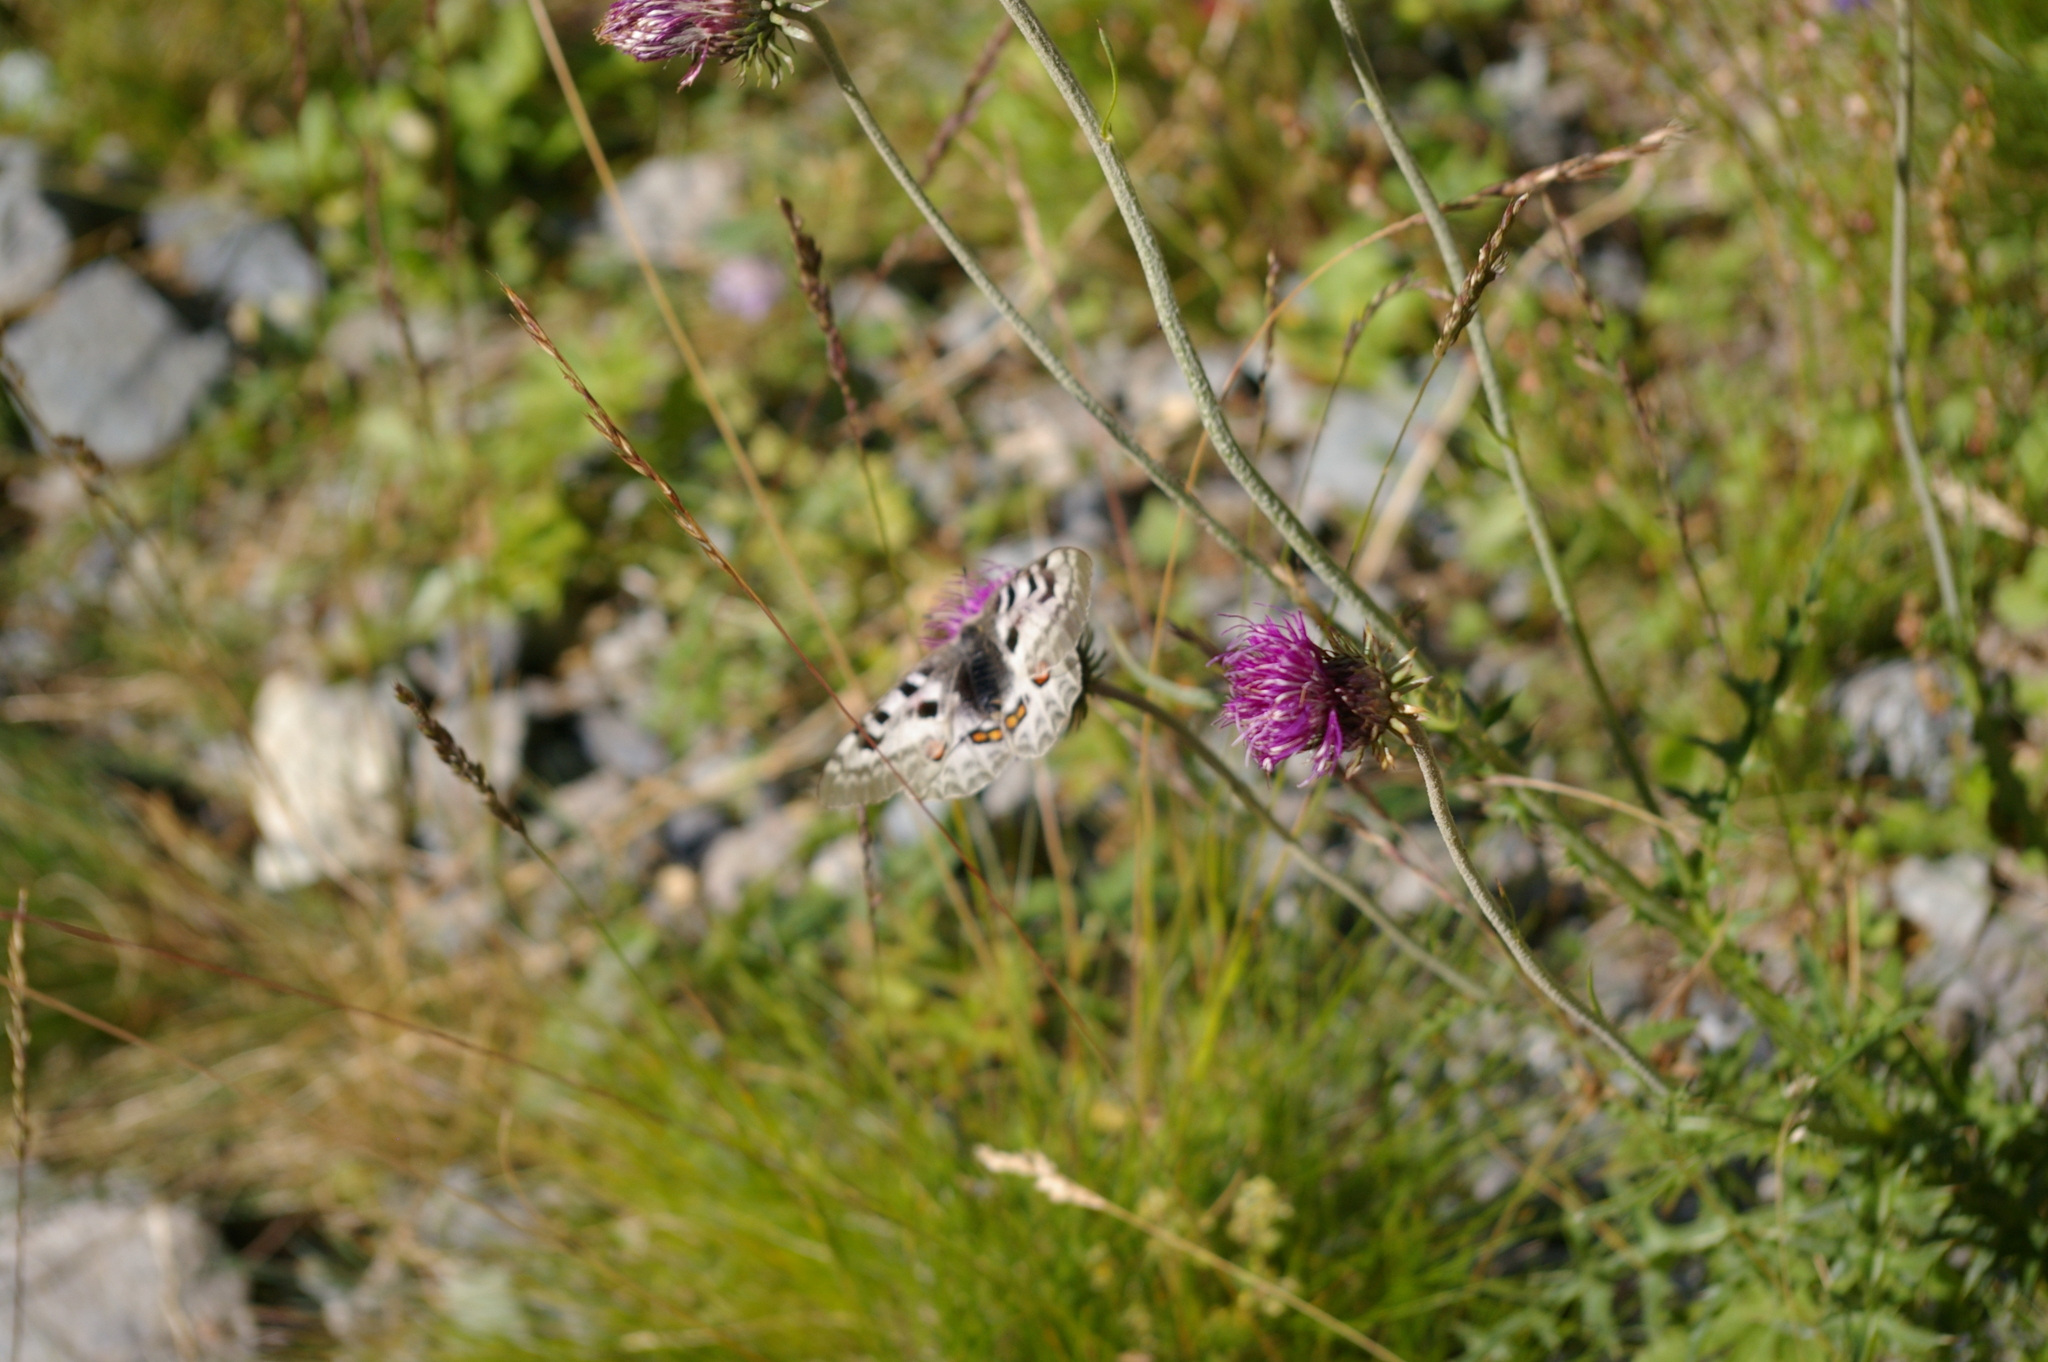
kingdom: Animalia
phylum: Arthropoda
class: Insecta
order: Lepidoptera
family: Papilionidae
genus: Parnassius
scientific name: Parnassius apollo
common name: Apollo
